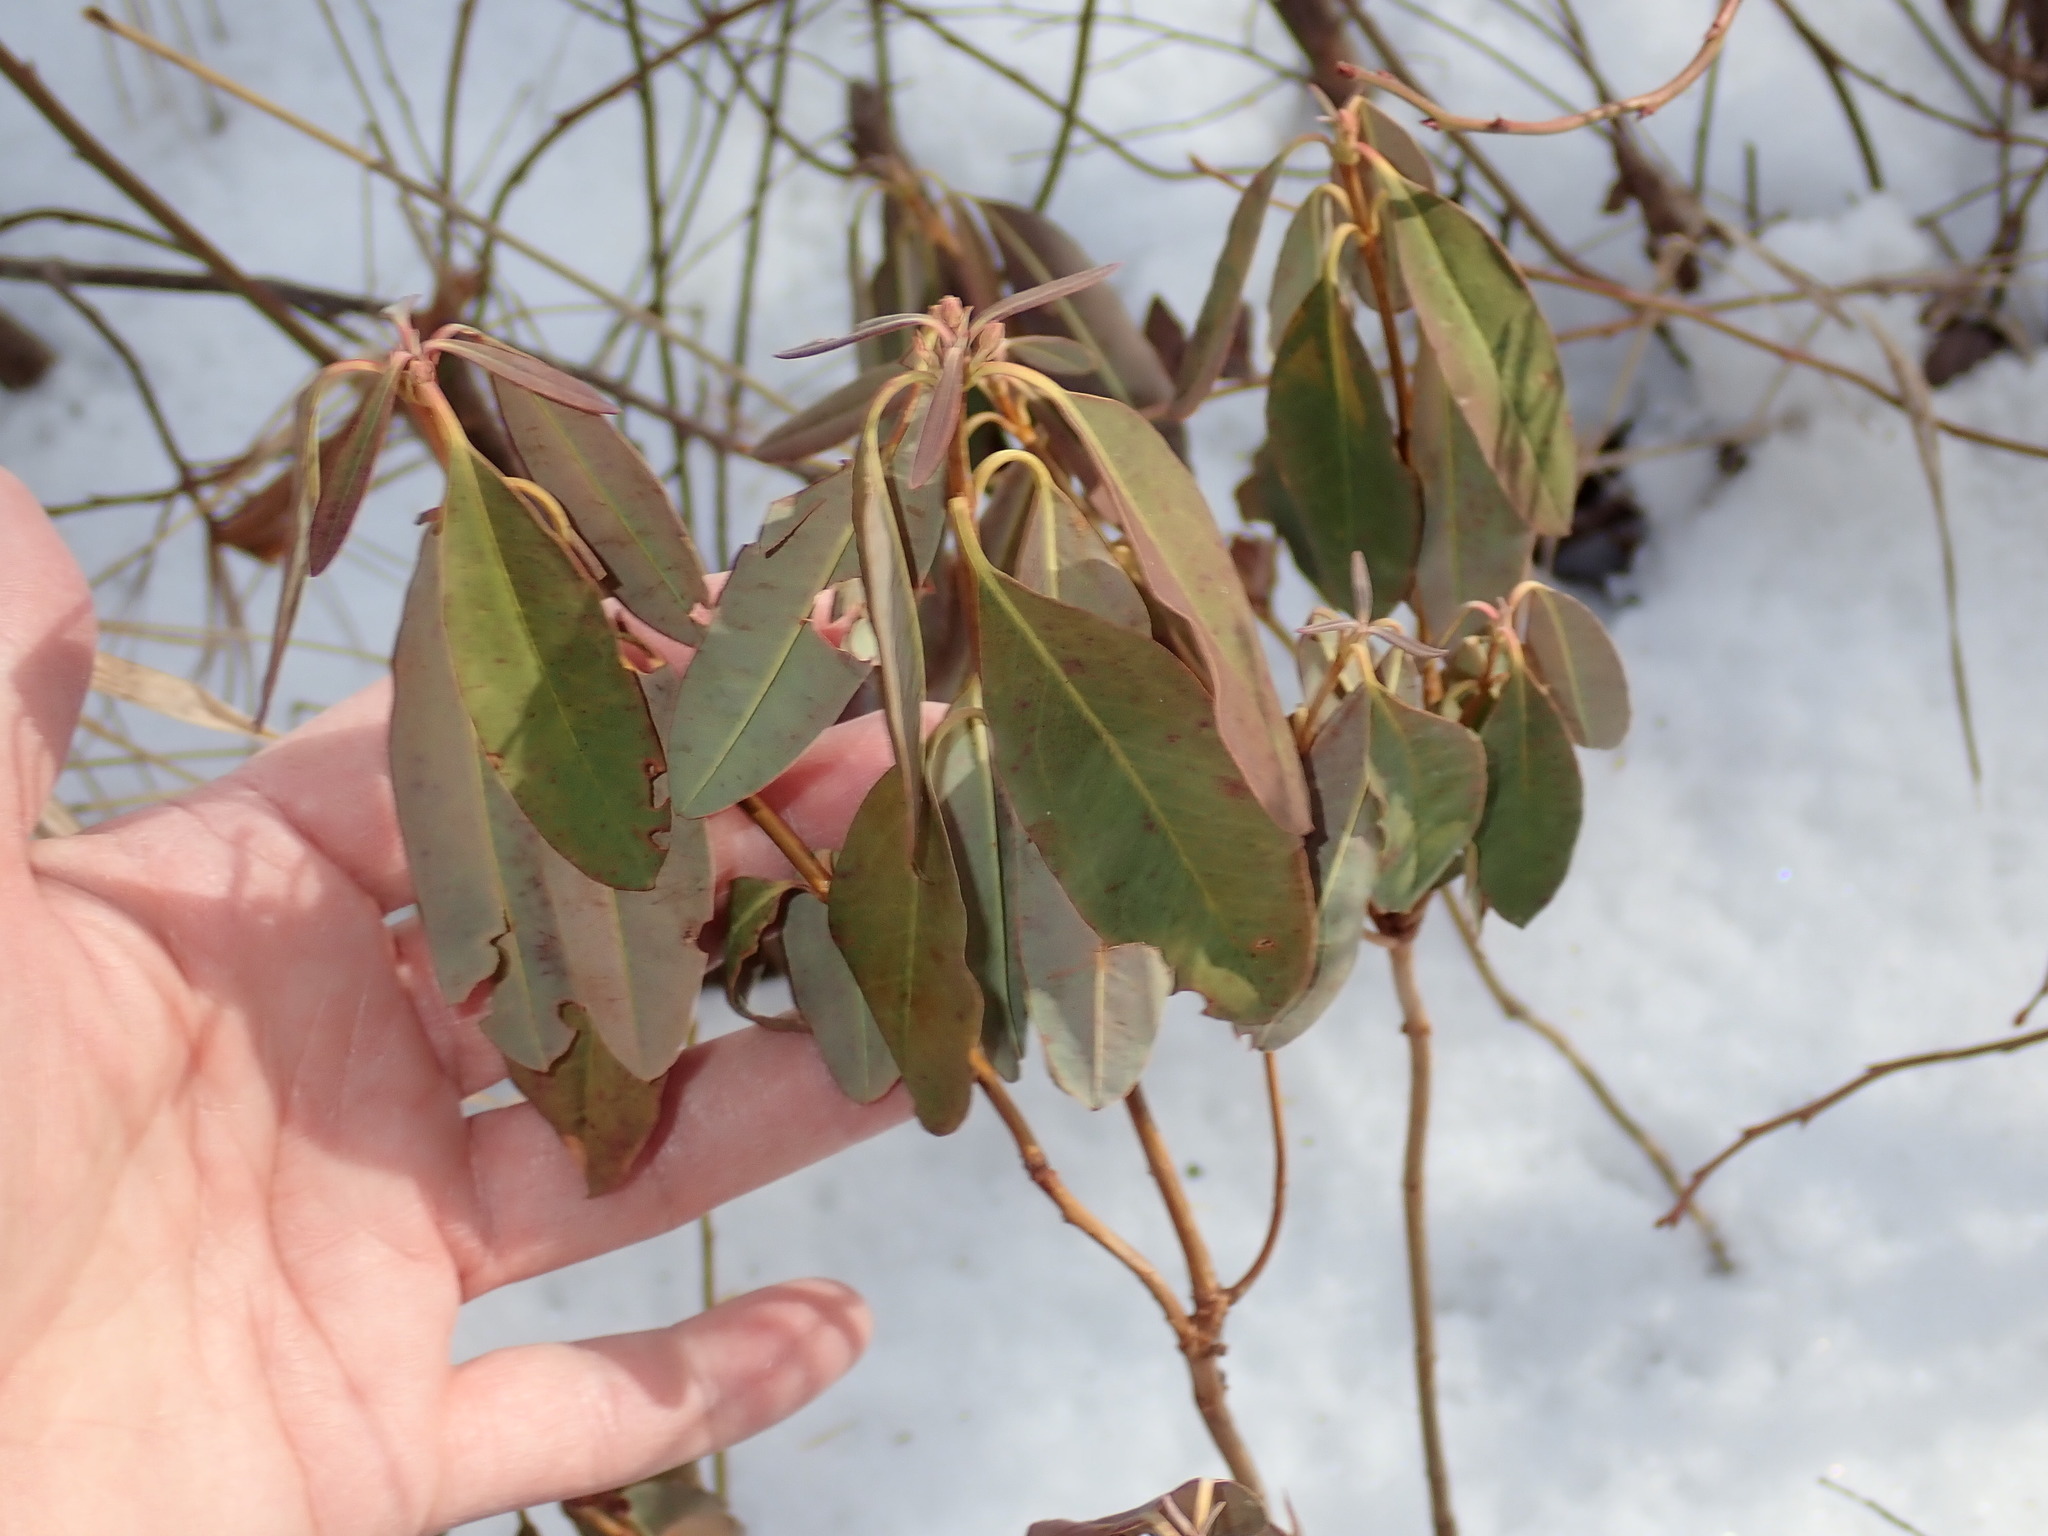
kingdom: Plantae
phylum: Tracheophyta
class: Magnoliopsida
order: Ericales
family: Ericaceae
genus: Kalmia
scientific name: Kalmia angustifolia
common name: Sheep-laurel
